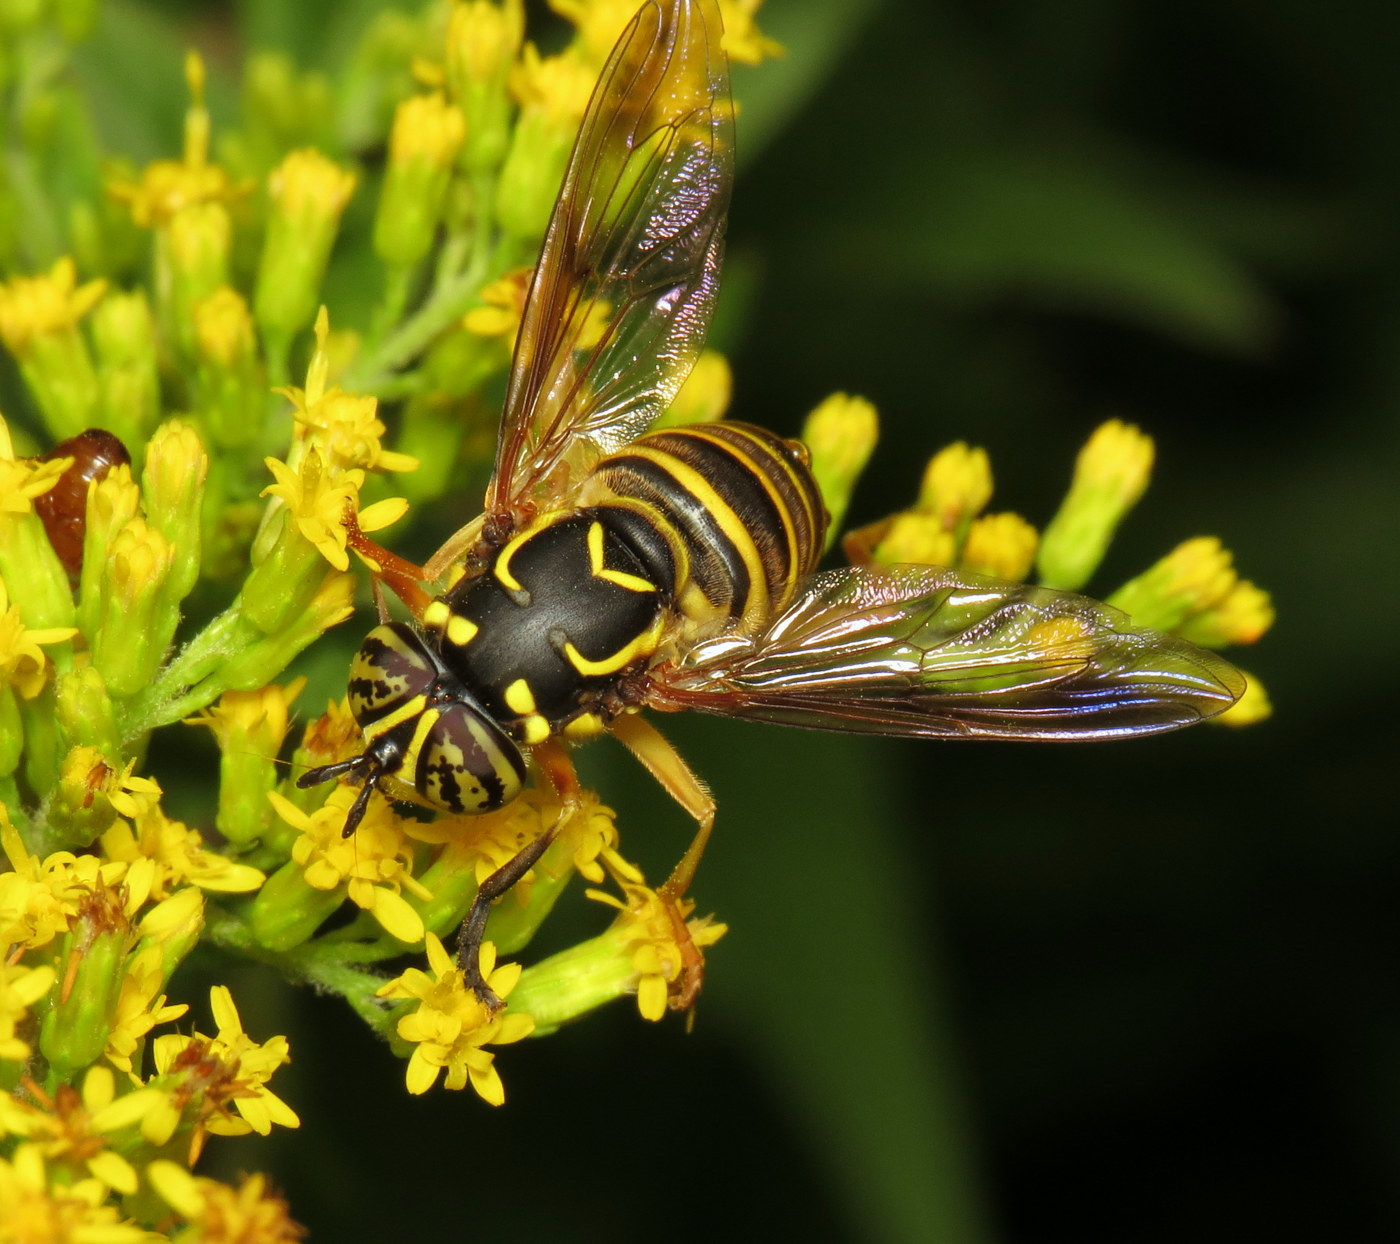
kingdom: Animalia
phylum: Arthropoda
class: Insecta
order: Diptera
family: Syrphidae
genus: Spilomyia
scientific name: Spilomyia longicornis
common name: Eastern hornet fly
